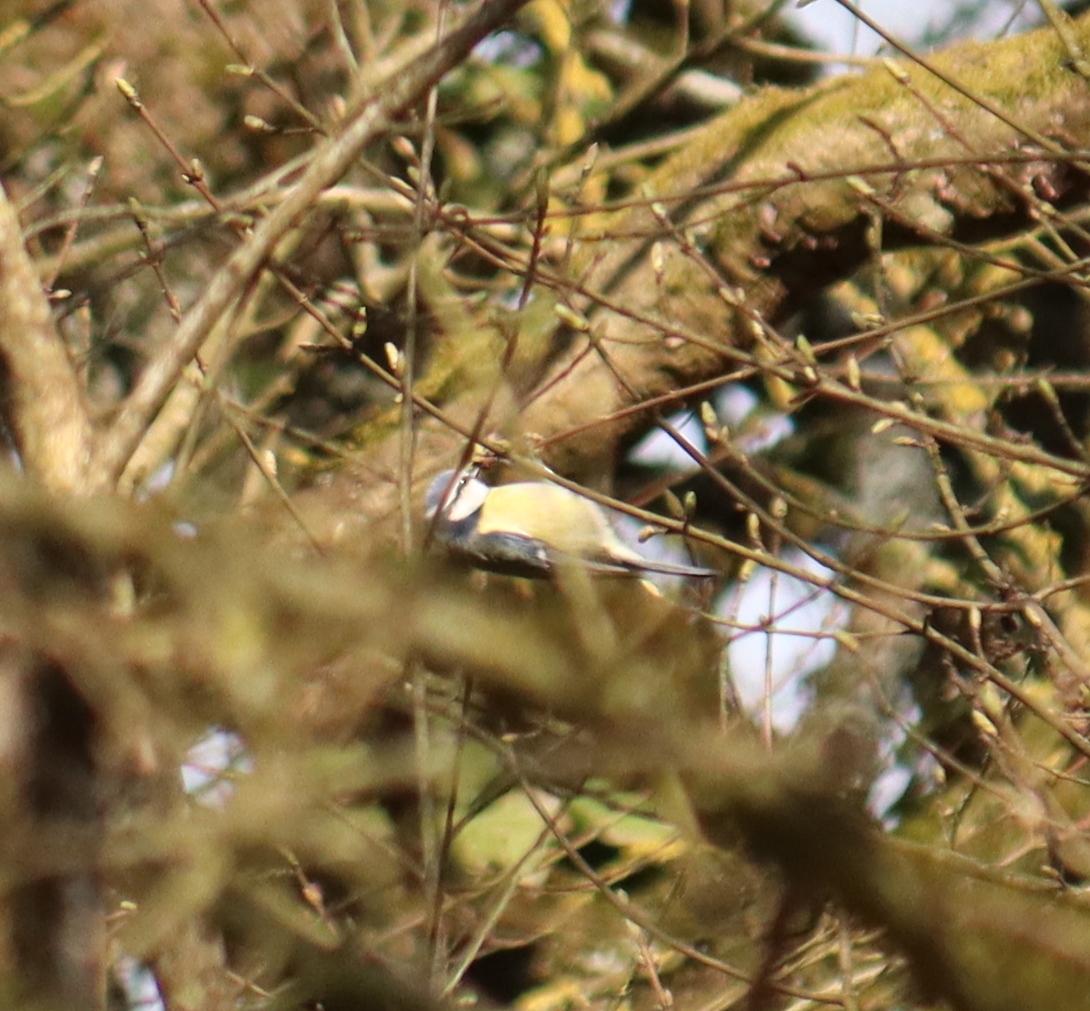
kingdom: Animalia
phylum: Chordata
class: Aves
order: Passeriformes
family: Paridae
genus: Cyanistes
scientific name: Cyanistes caeruleus
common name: Eurasian blue tit
